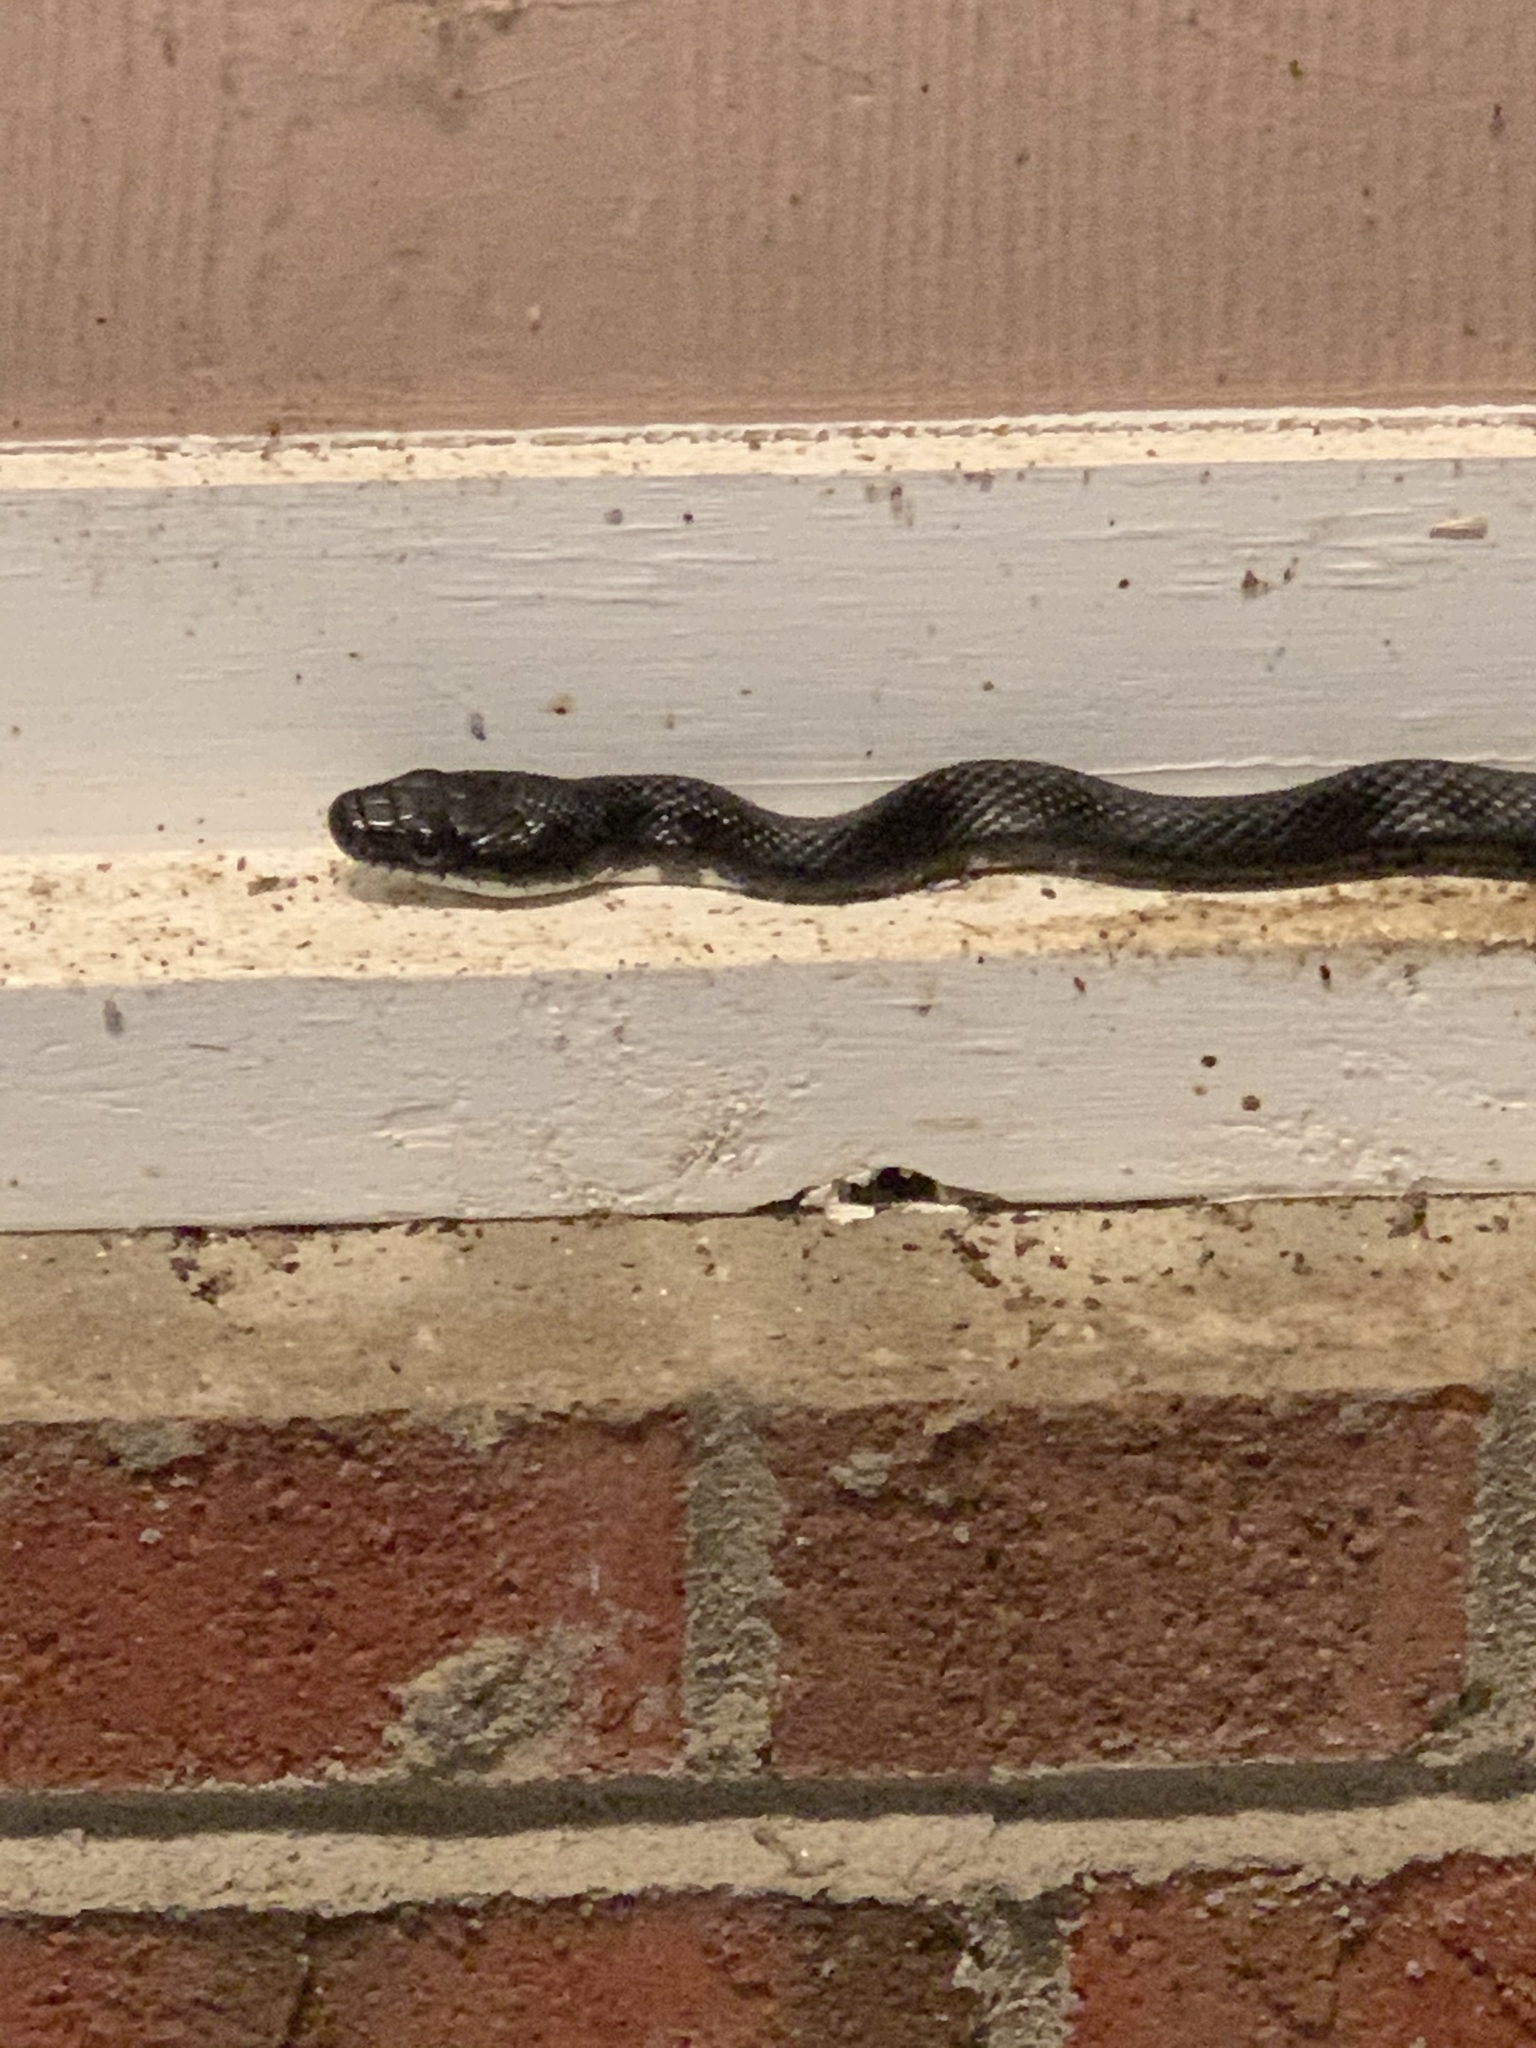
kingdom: Animalia
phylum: Chordata
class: Squamata
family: Colubridae
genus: Pantherophis
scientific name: Pantherophis alleghaniensis
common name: Eastern rat snake
